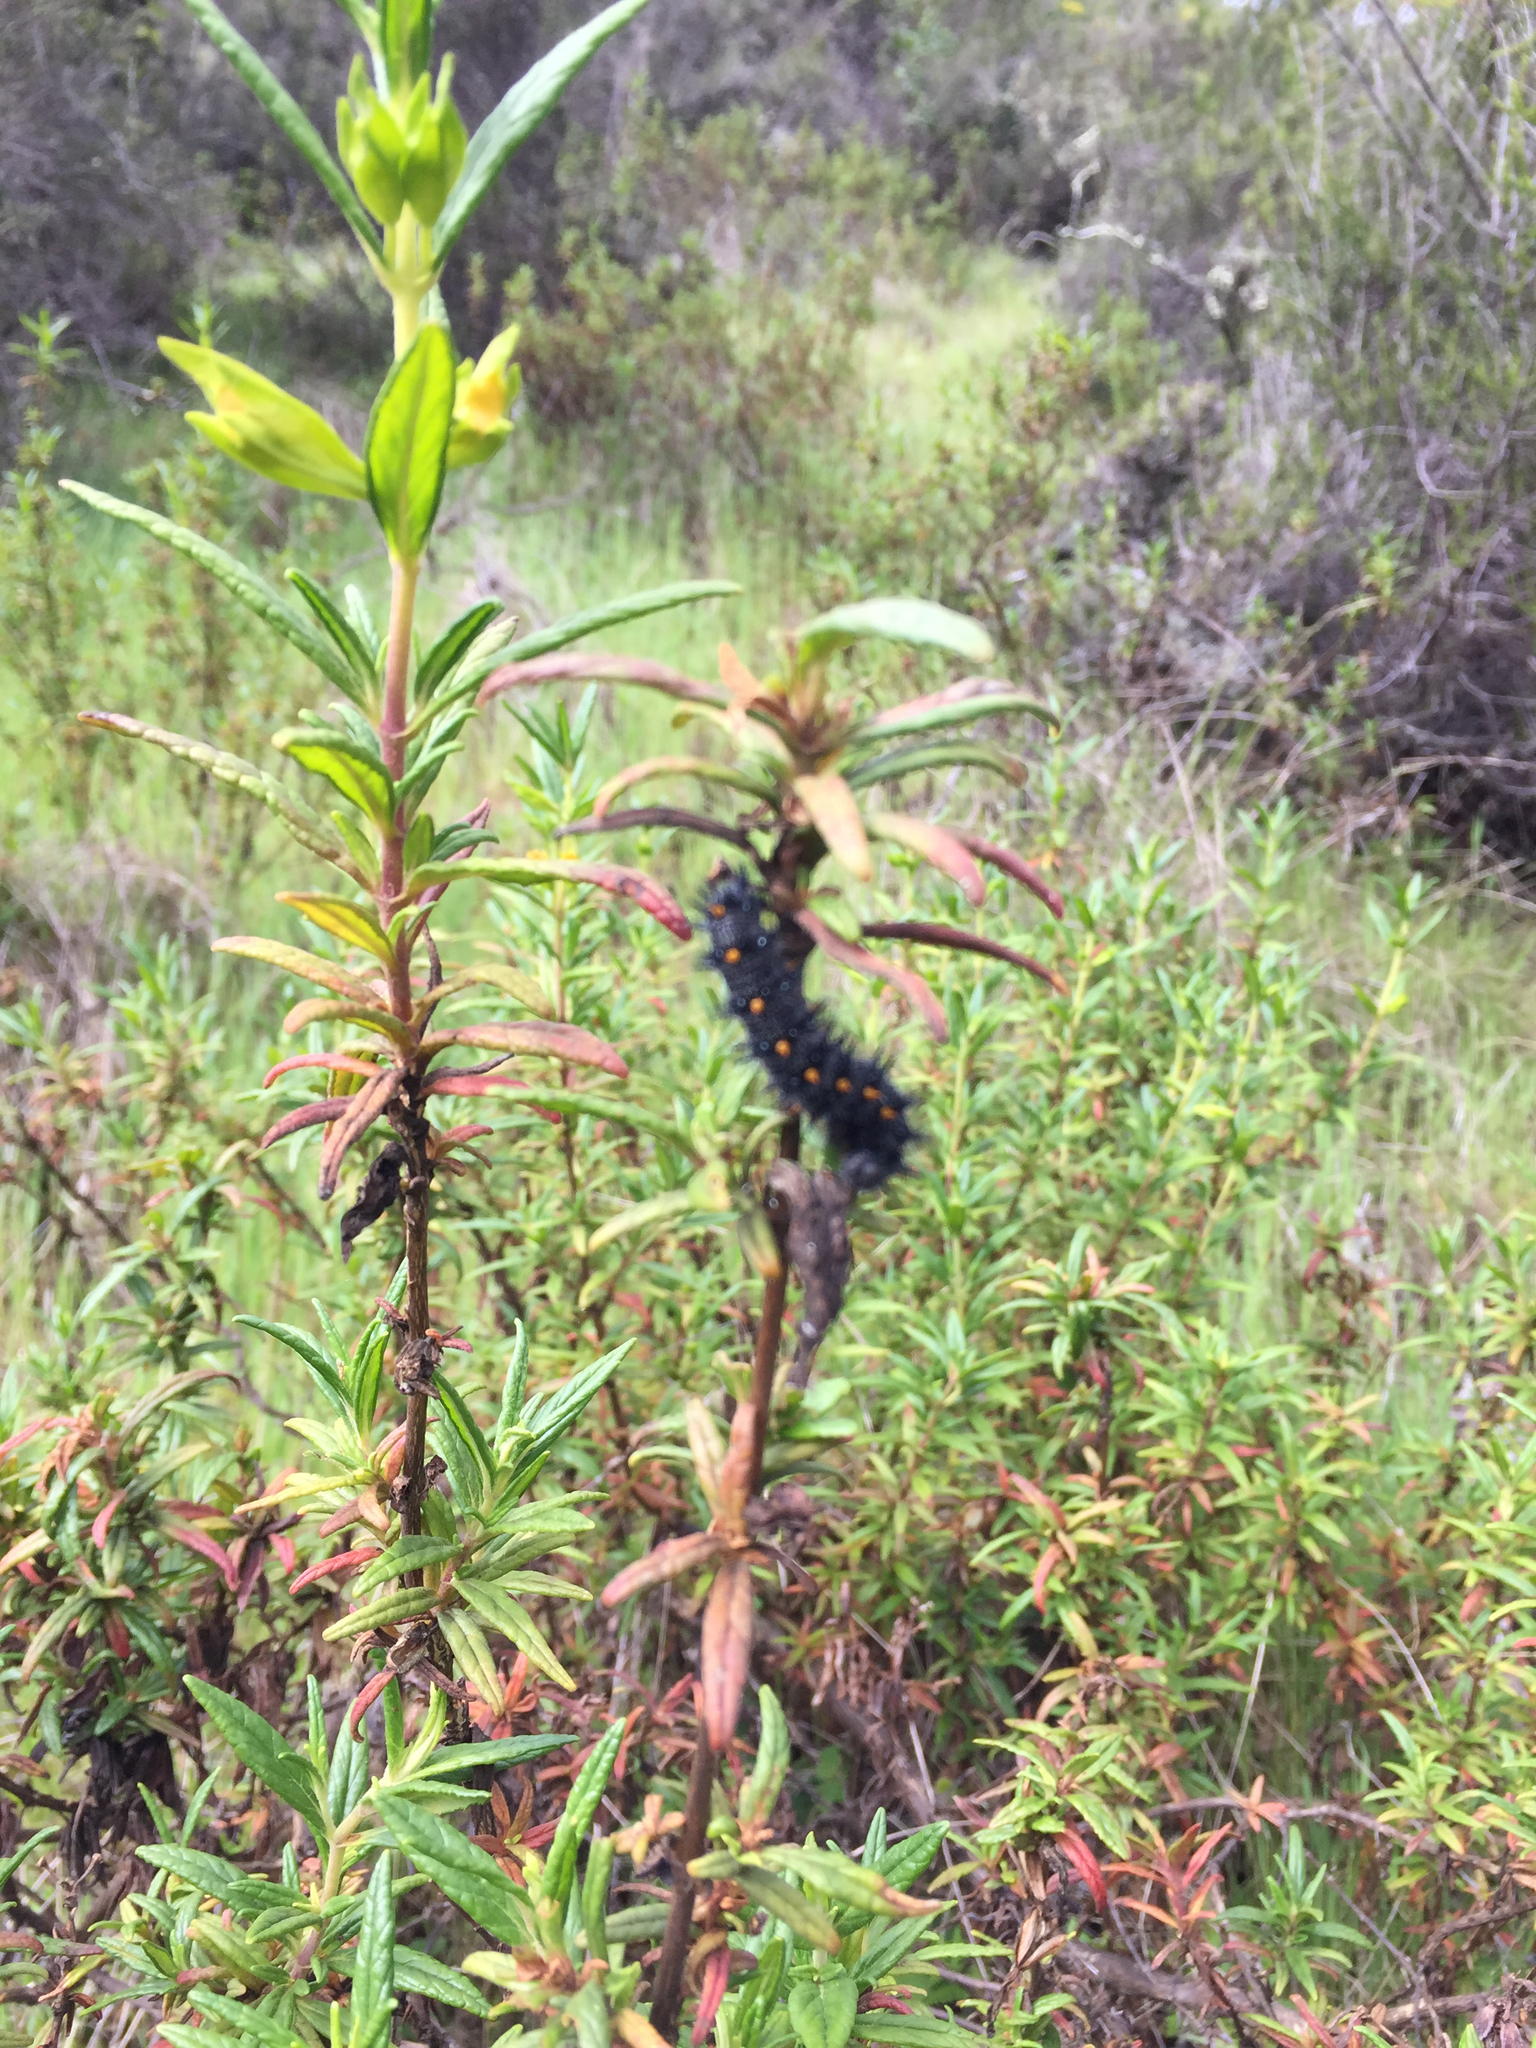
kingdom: Plantae
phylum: Tracheophyta
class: Magnoliopsida
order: Lamiales
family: Phrymaceae
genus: Diplacus
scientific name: Diplacus aurantiacus
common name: Bush monkey-flower
